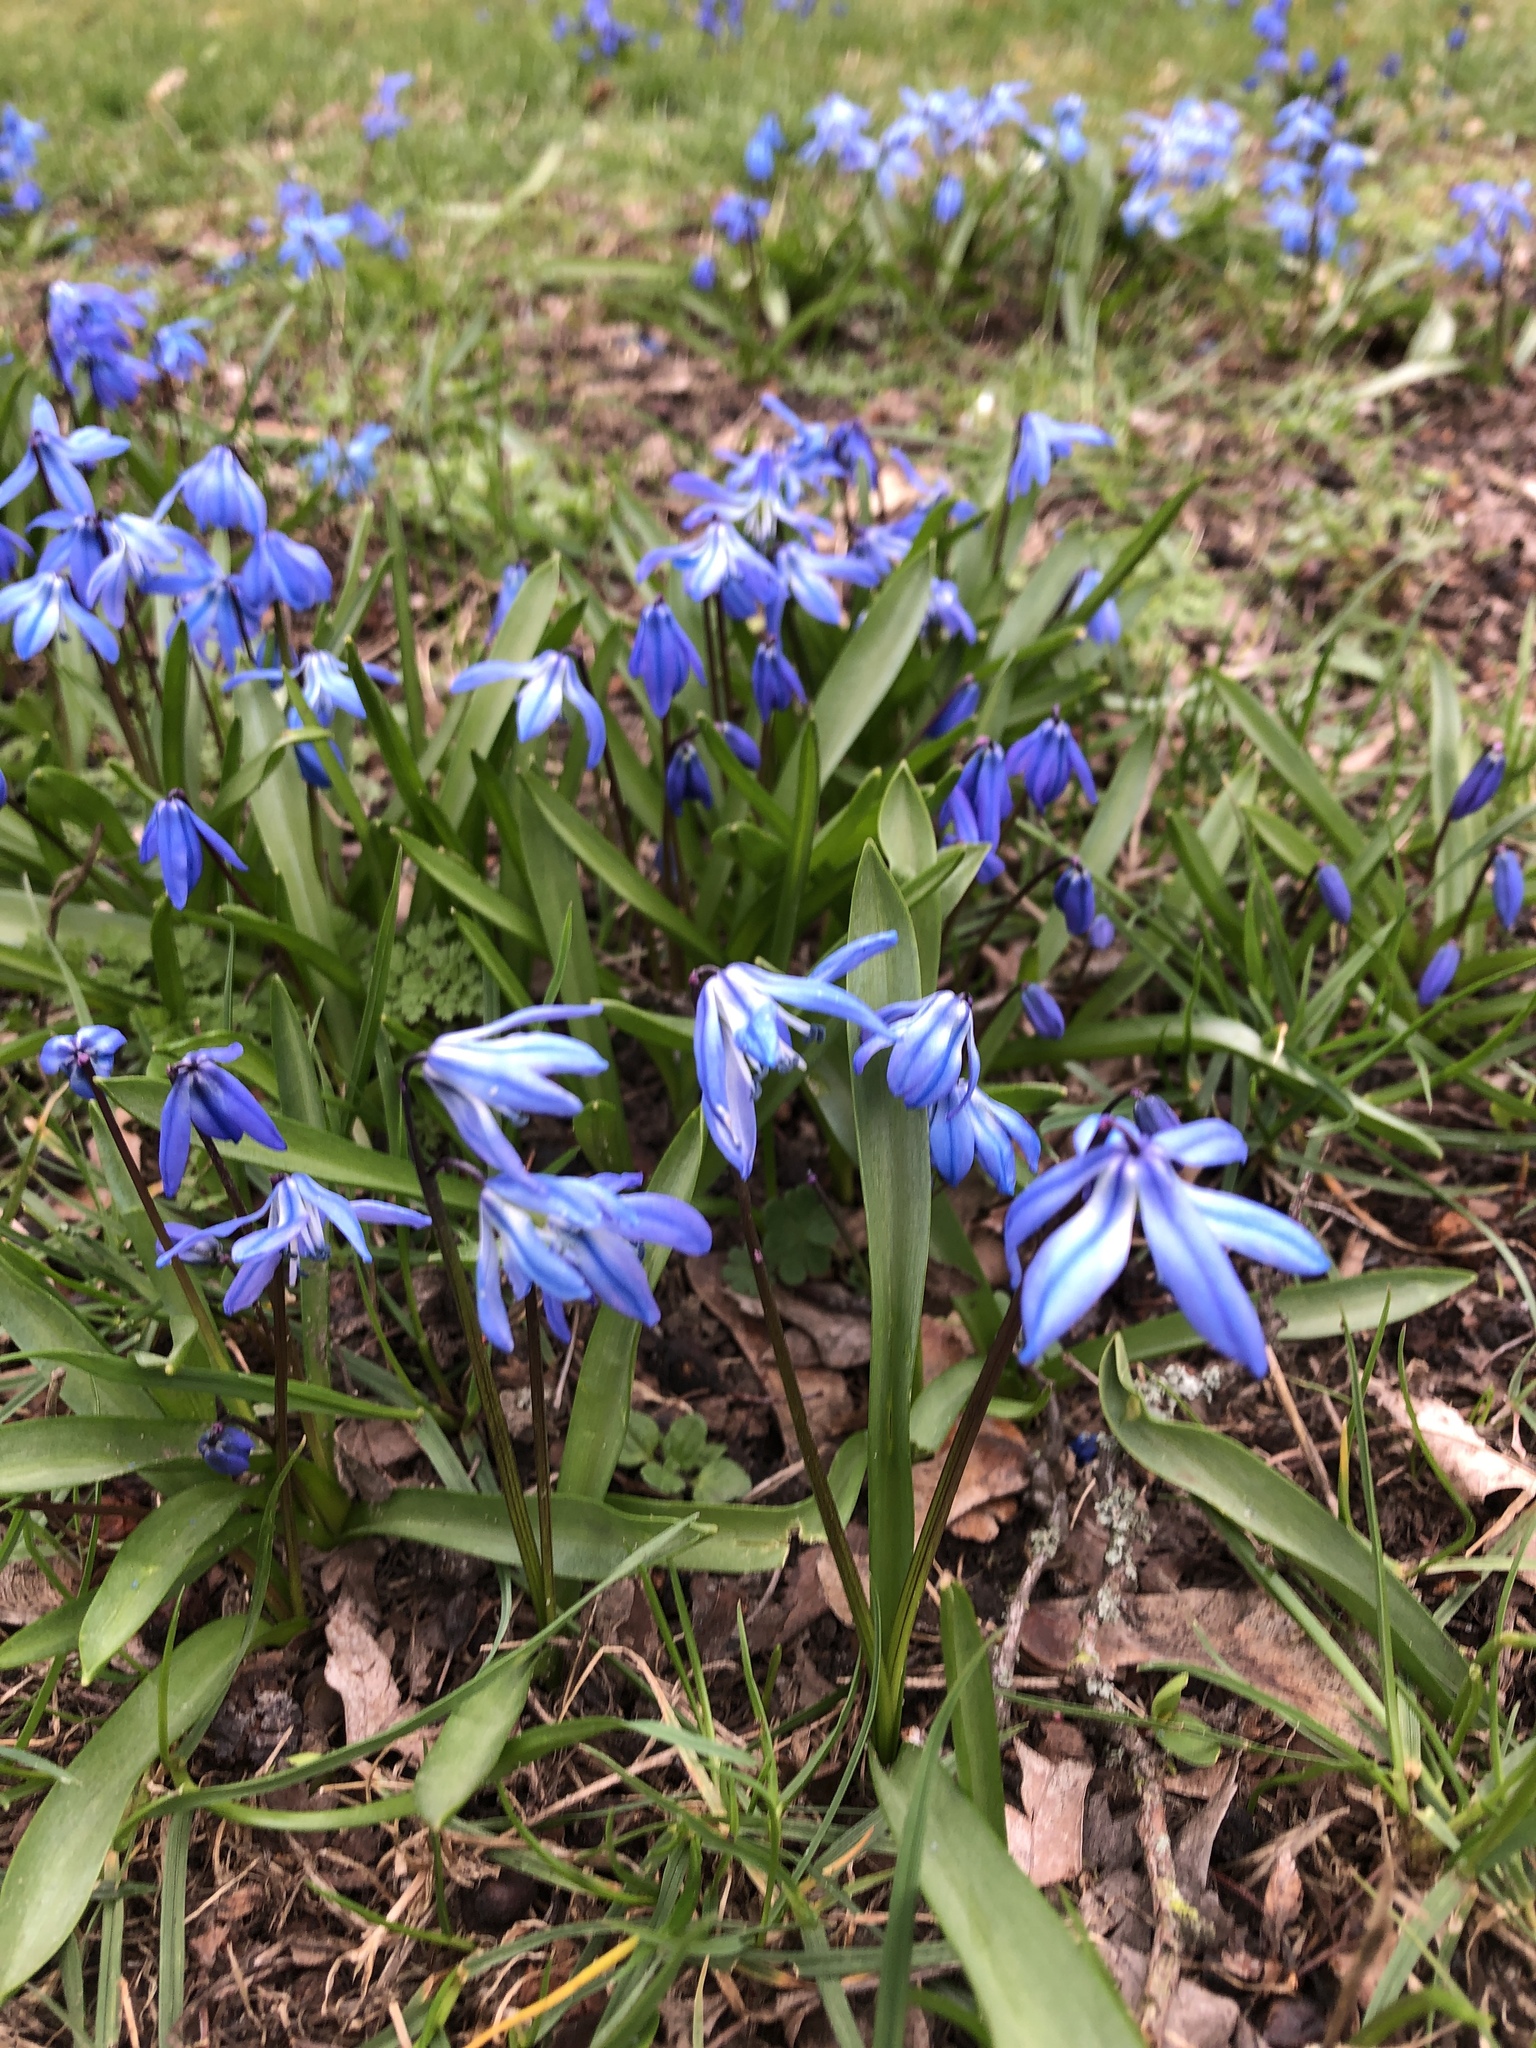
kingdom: Plantae
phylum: Tracheophyta
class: Liliopsida
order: Asparagales
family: Asparagaceae
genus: Scilla
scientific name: Scilla siberica
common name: Siberian squill
